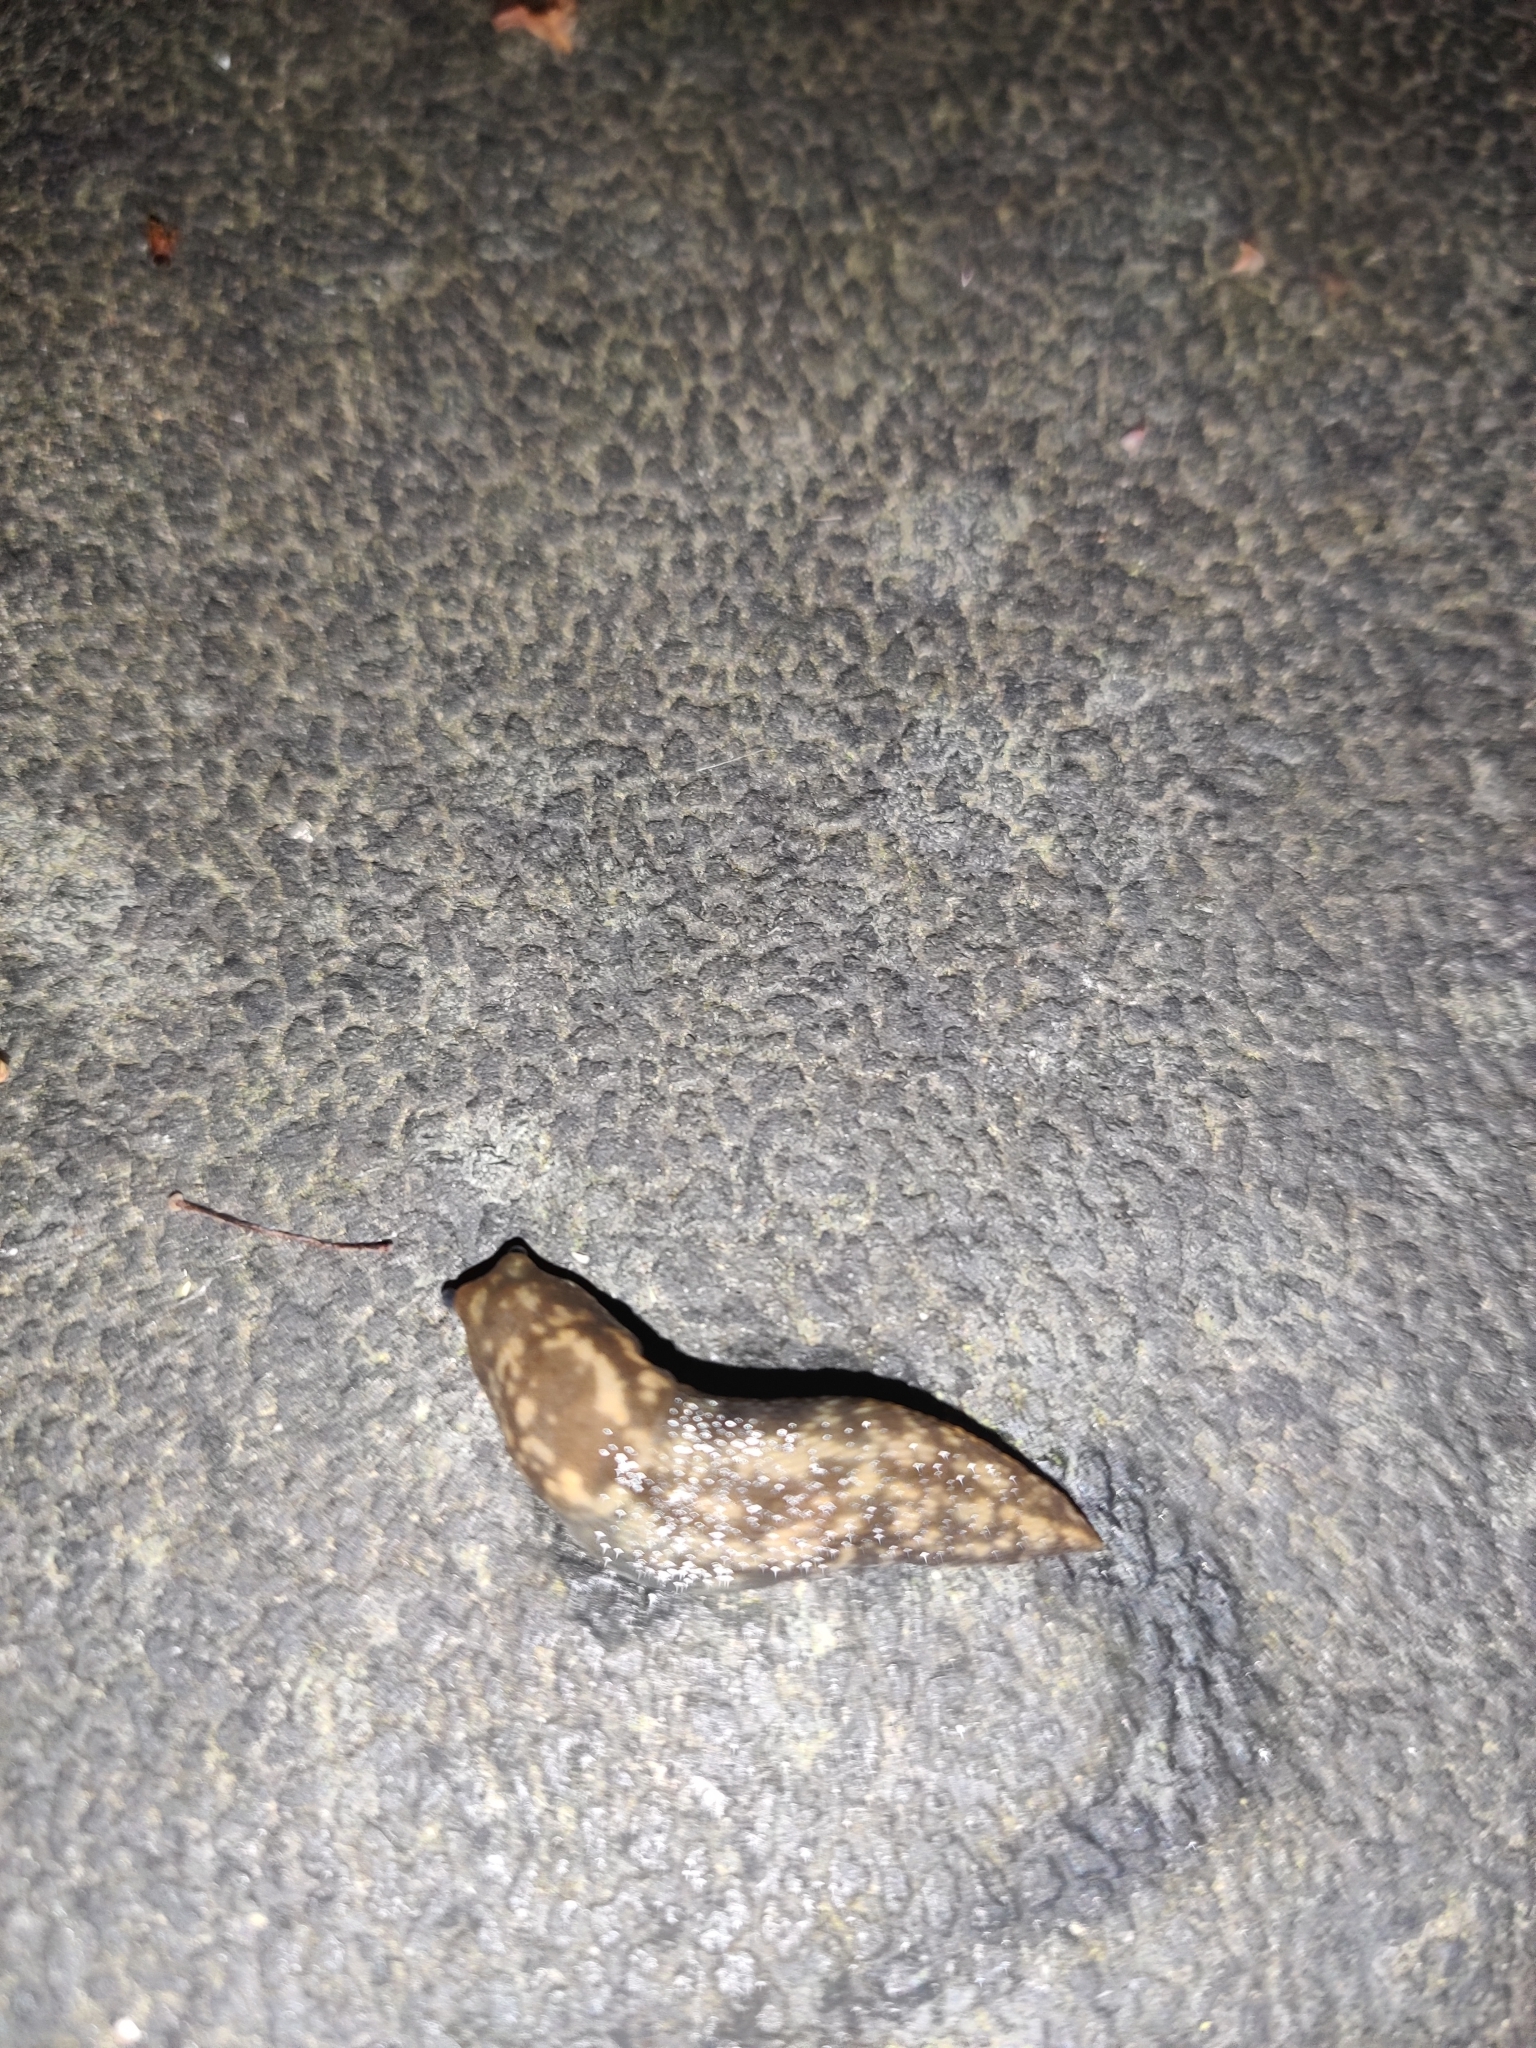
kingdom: Animalia
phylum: Mollusca
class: Gastropoda
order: Stylommatophora
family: Limacidae
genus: Limacus
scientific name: Limacus maculatus
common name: Irish yellow slug
